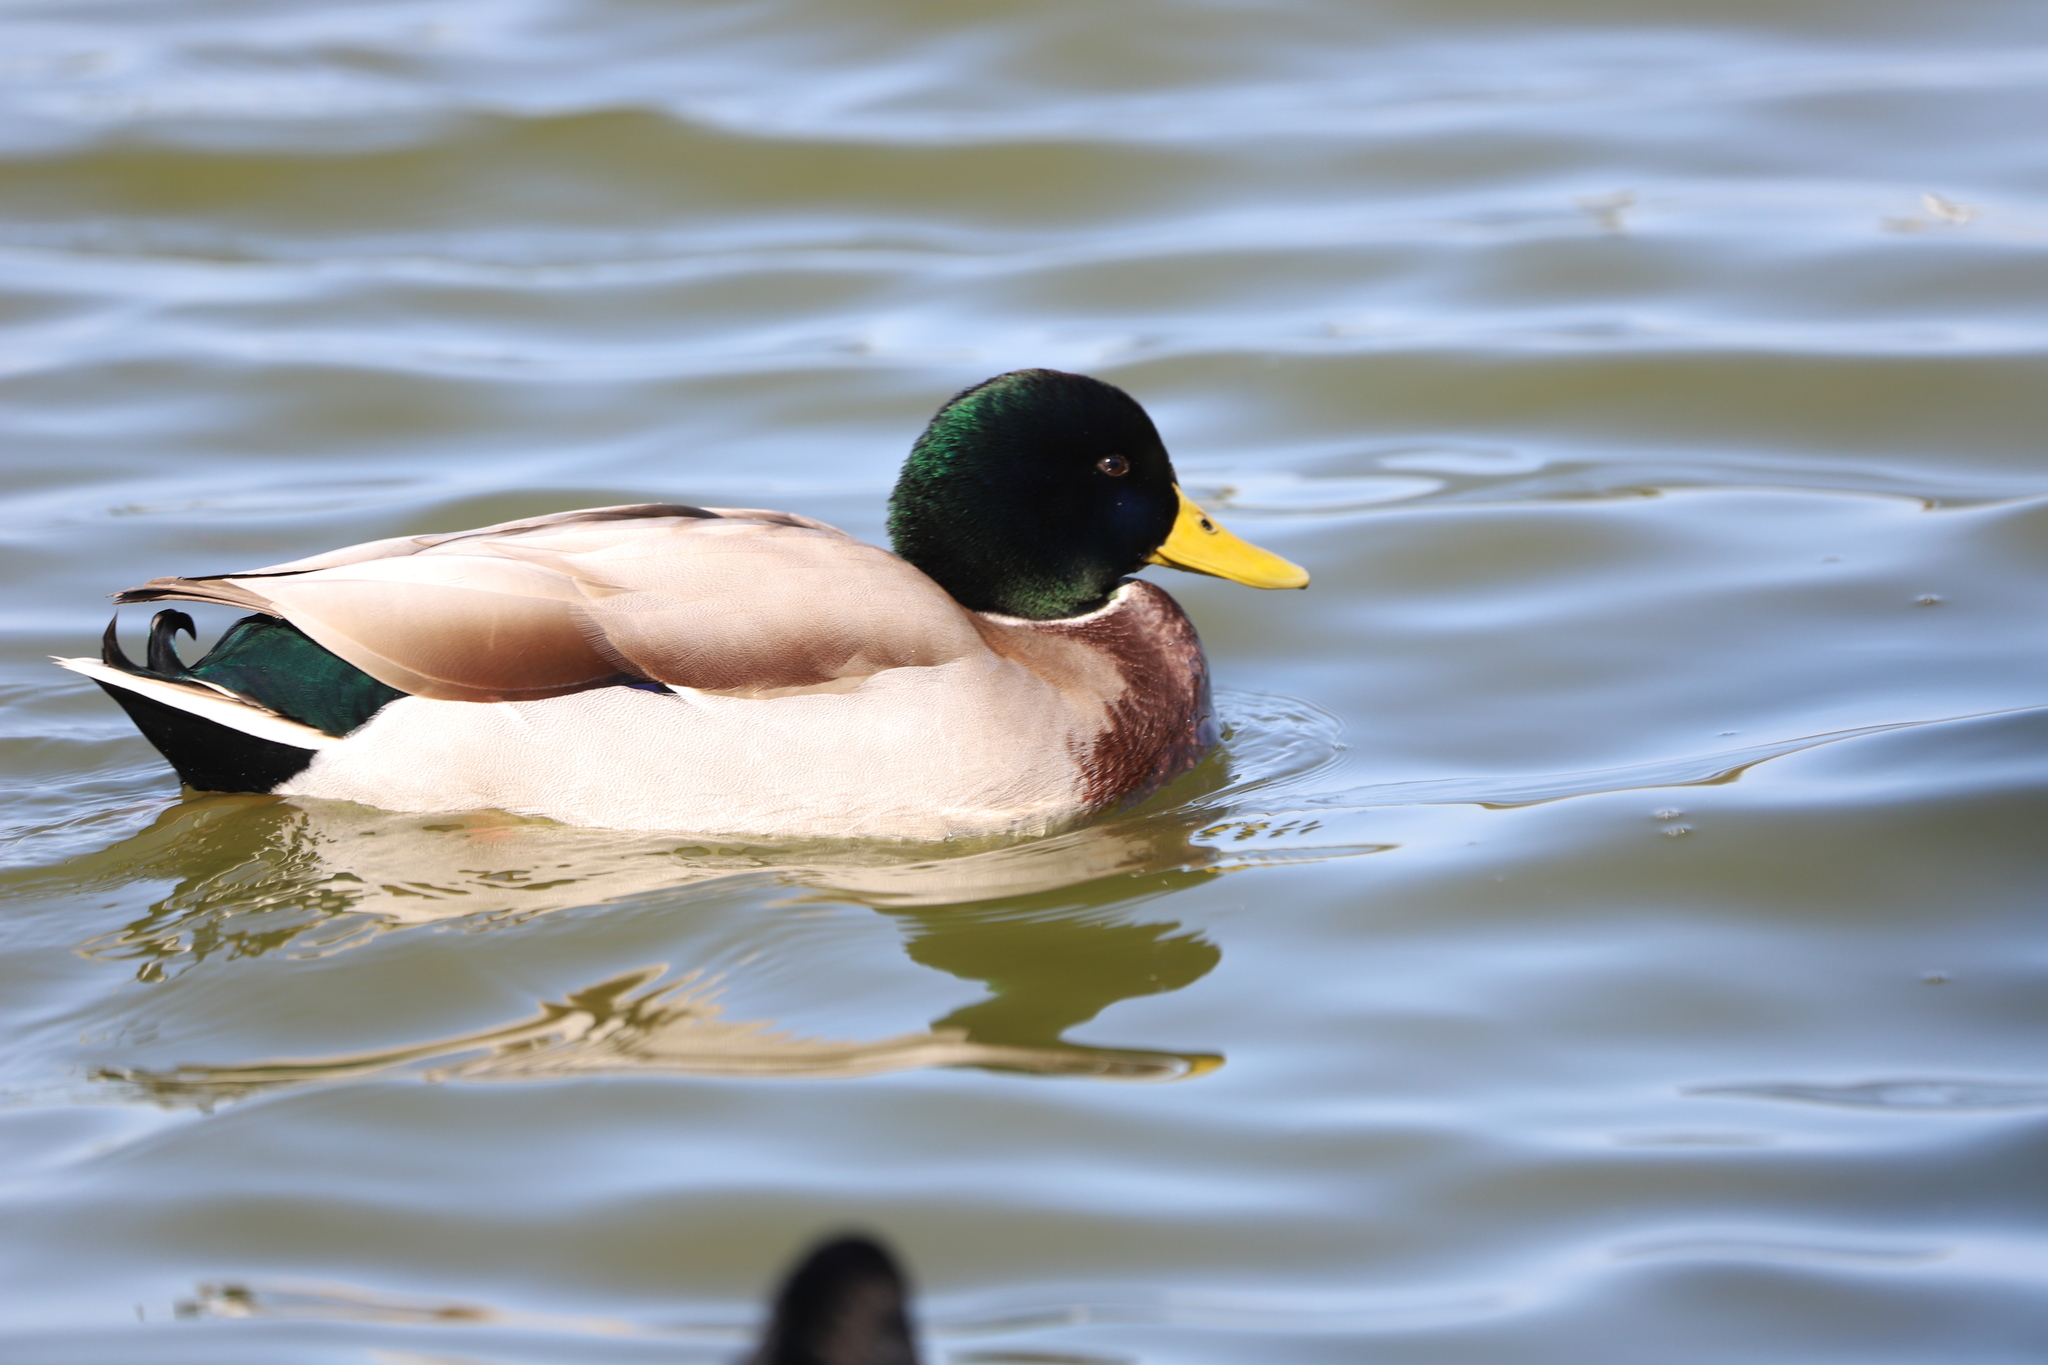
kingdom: Animalia
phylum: Chordata
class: Aves
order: Anseriformes
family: Anatidae
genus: Anas
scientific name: Anas platyrhynchos
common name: Mallard
